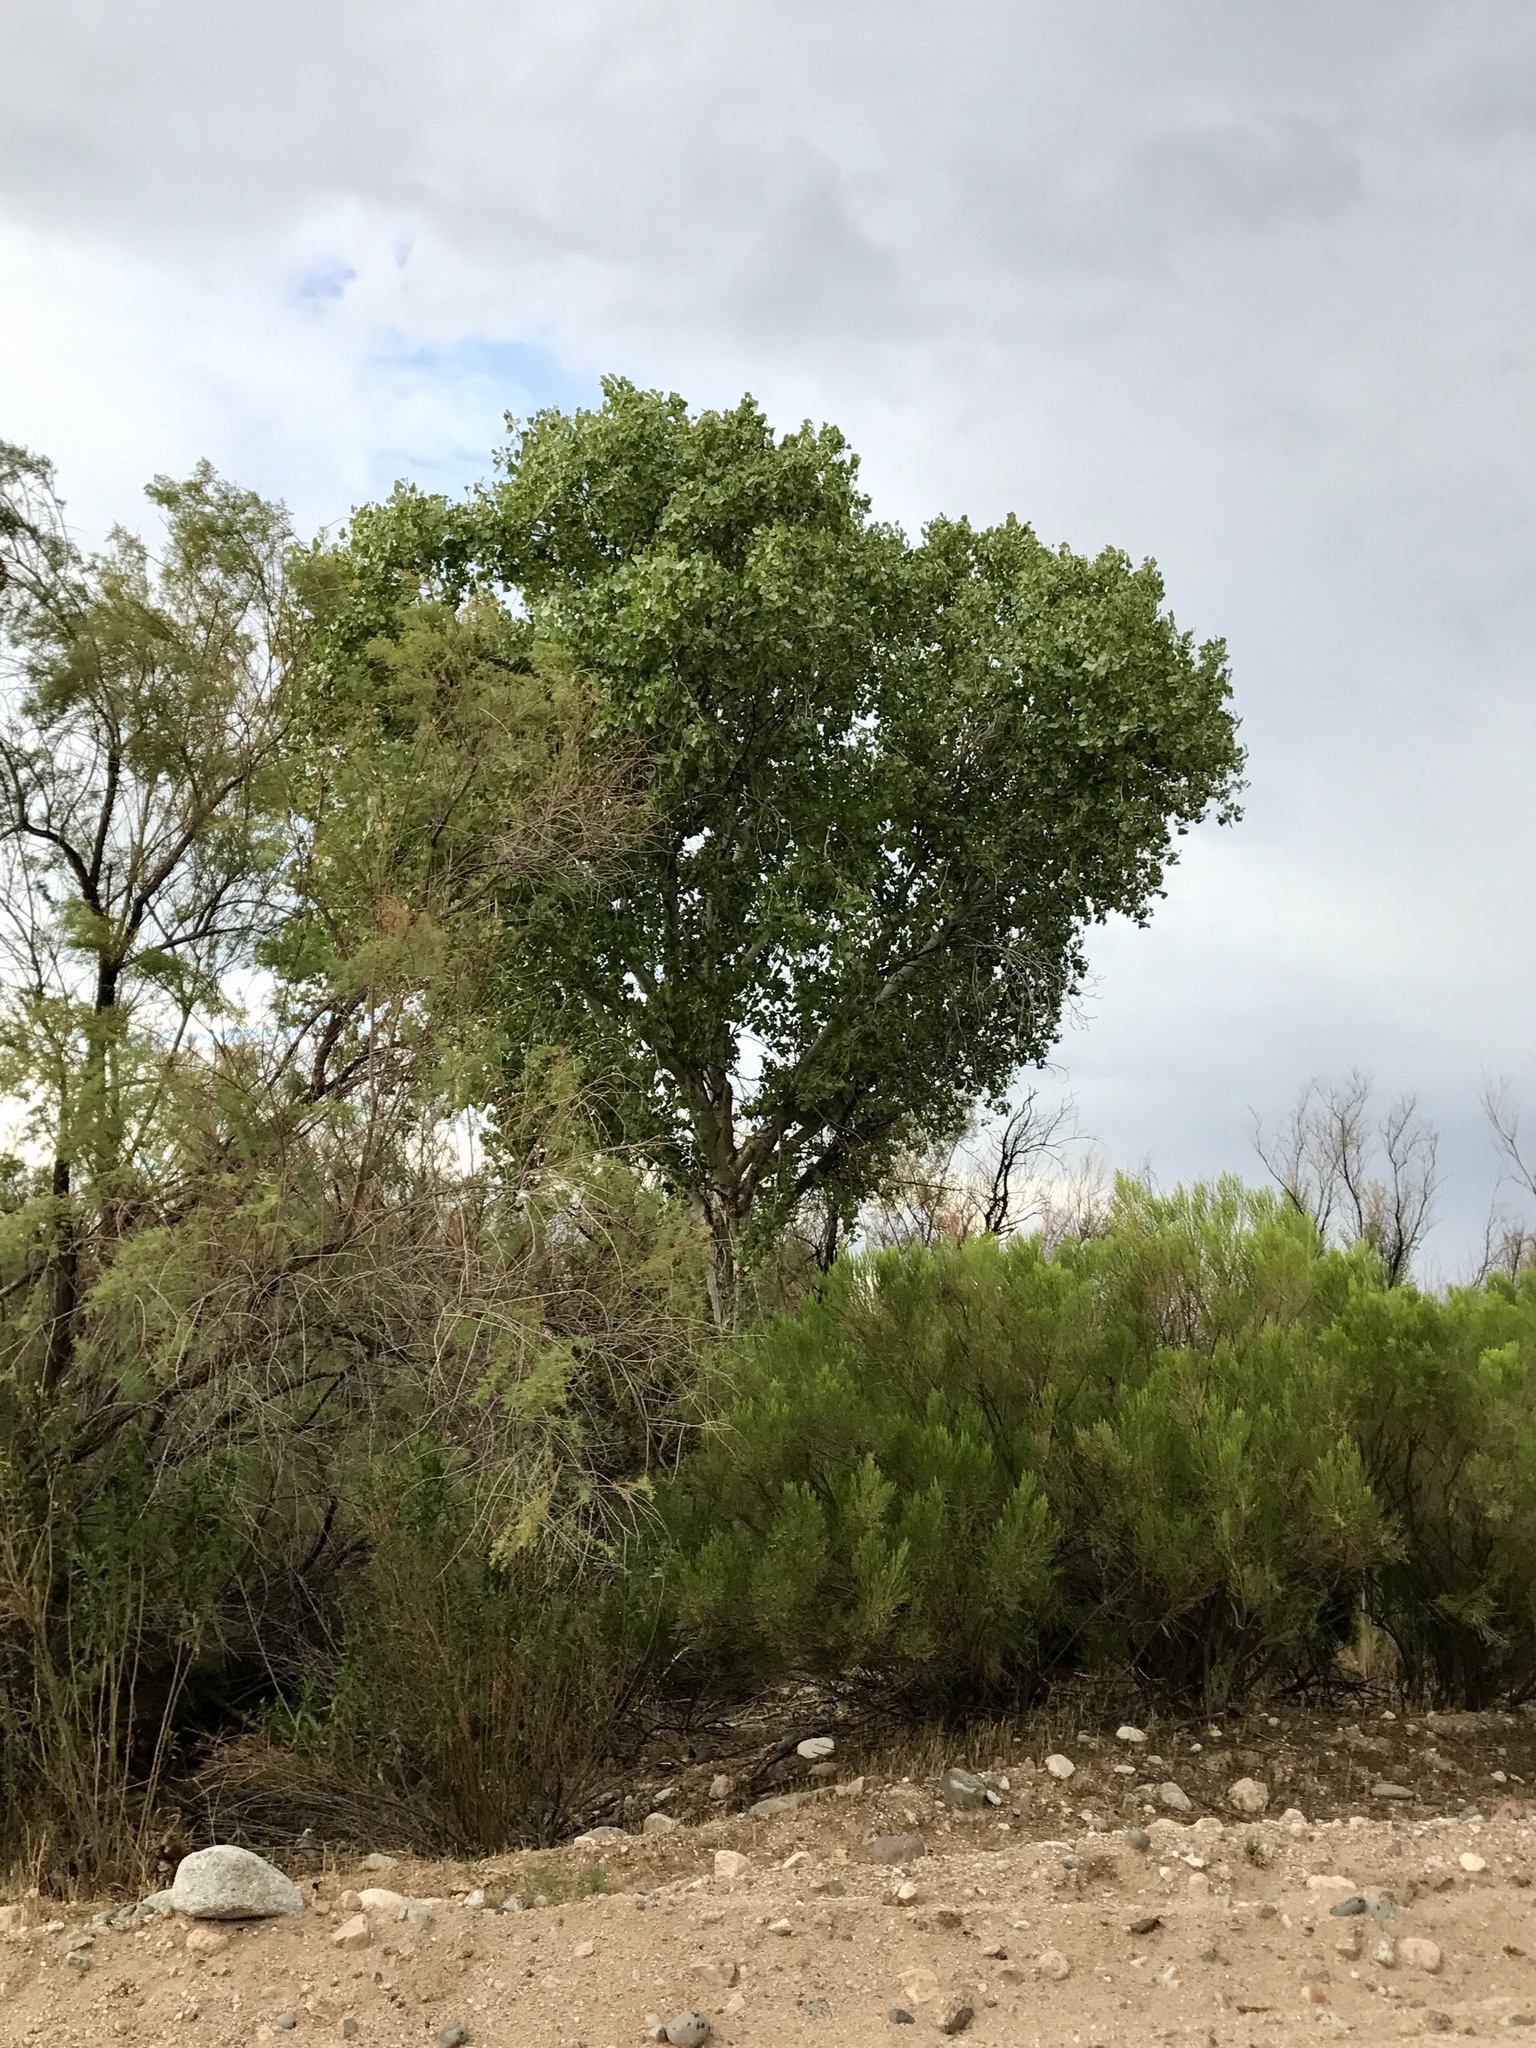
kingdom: Plantae
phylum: Tracheophyta
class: Magnoliopsida
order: Malpighiales
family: Salicaceae
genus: Populus
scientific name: Populus fremontii
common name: Fremont's cottonwood
